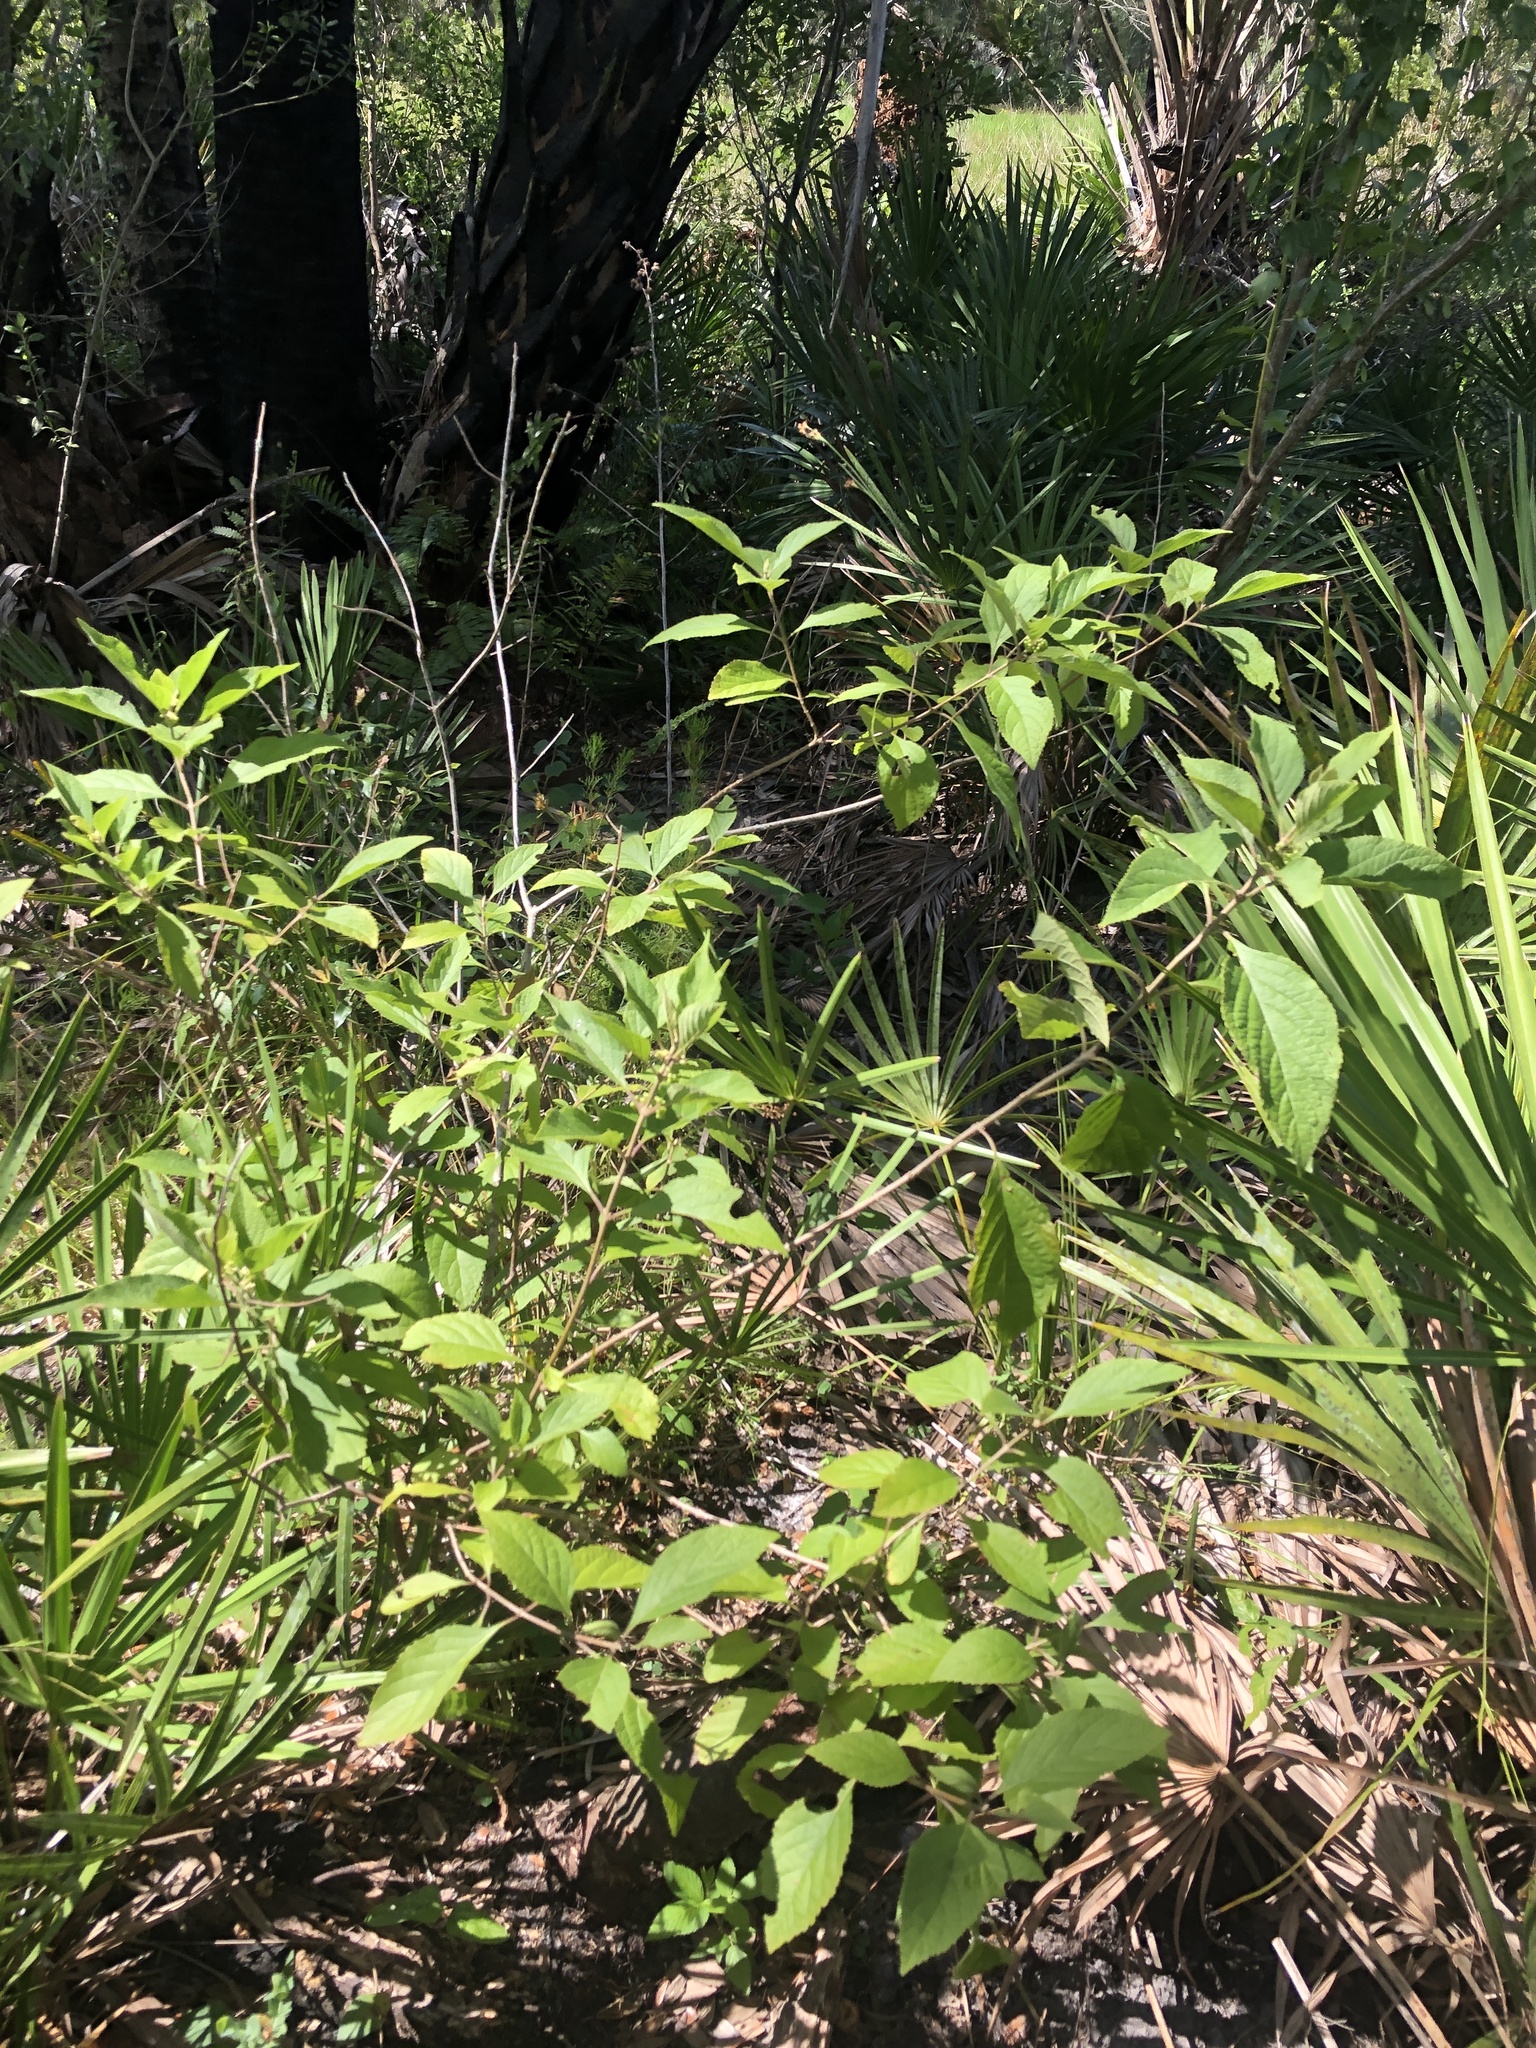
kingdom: Plantae
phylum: Tracheophyta
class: Magnoliopsida
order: Lamiales
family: Lamiaceae
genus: Callicarpa
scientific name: Callicarpa americana
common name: American beautyberry
